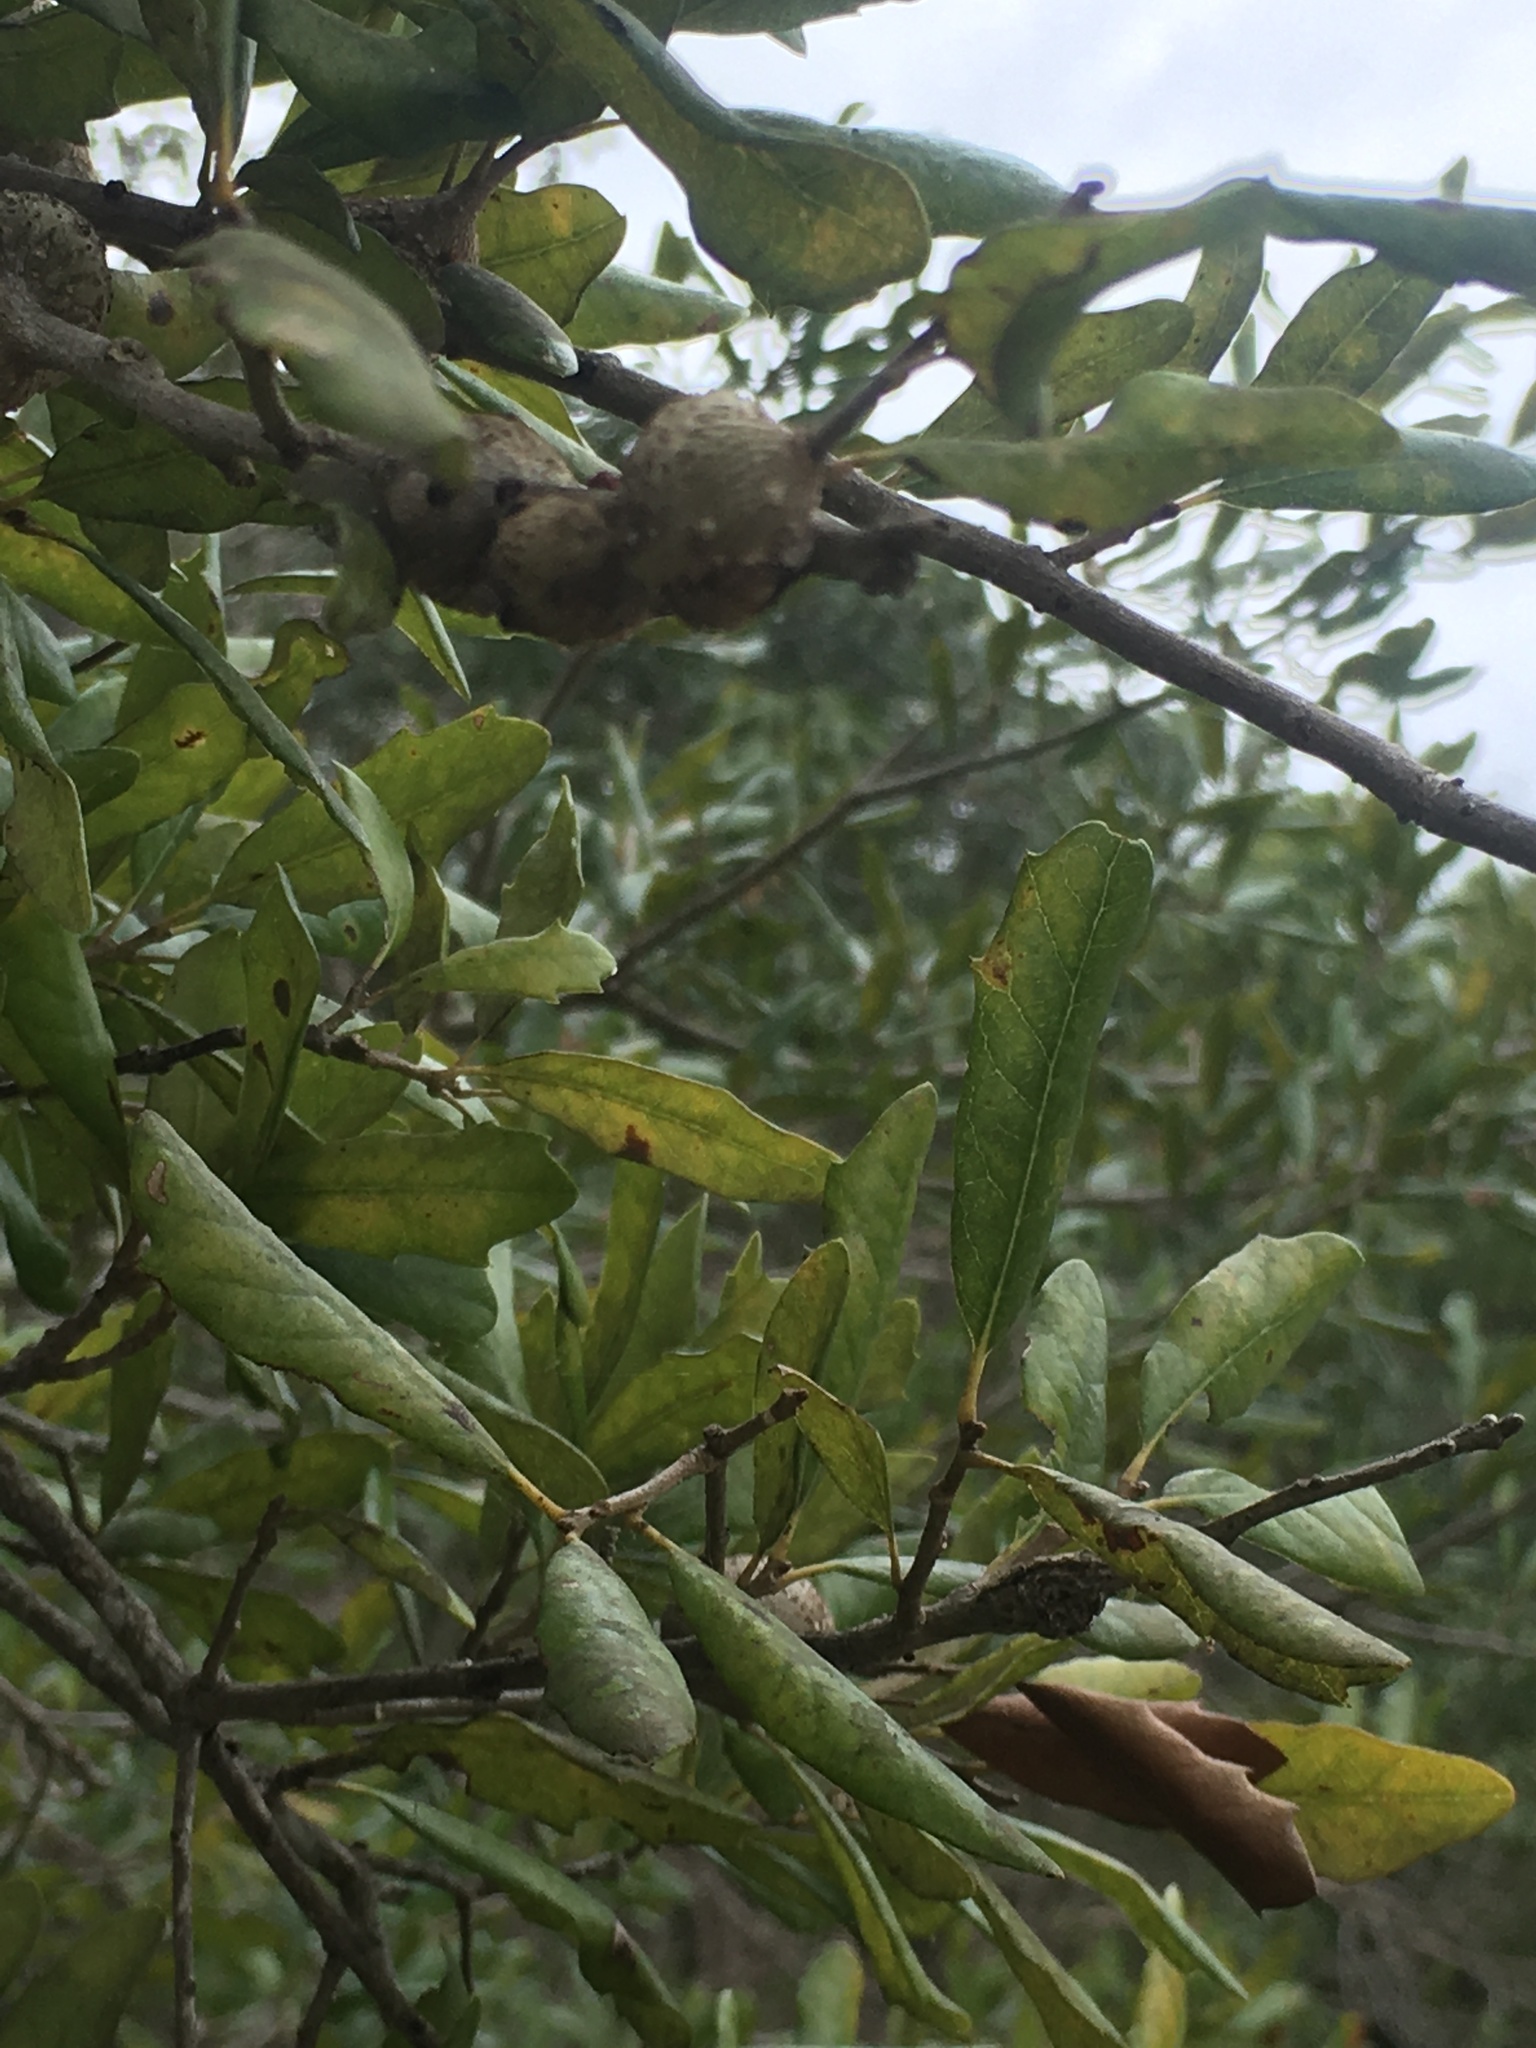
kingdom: Animalia
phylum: Arthropoda
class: Insecta
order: Hymenoptera
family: Cynipidae
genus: Callirhytis
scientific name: Callirhytis
